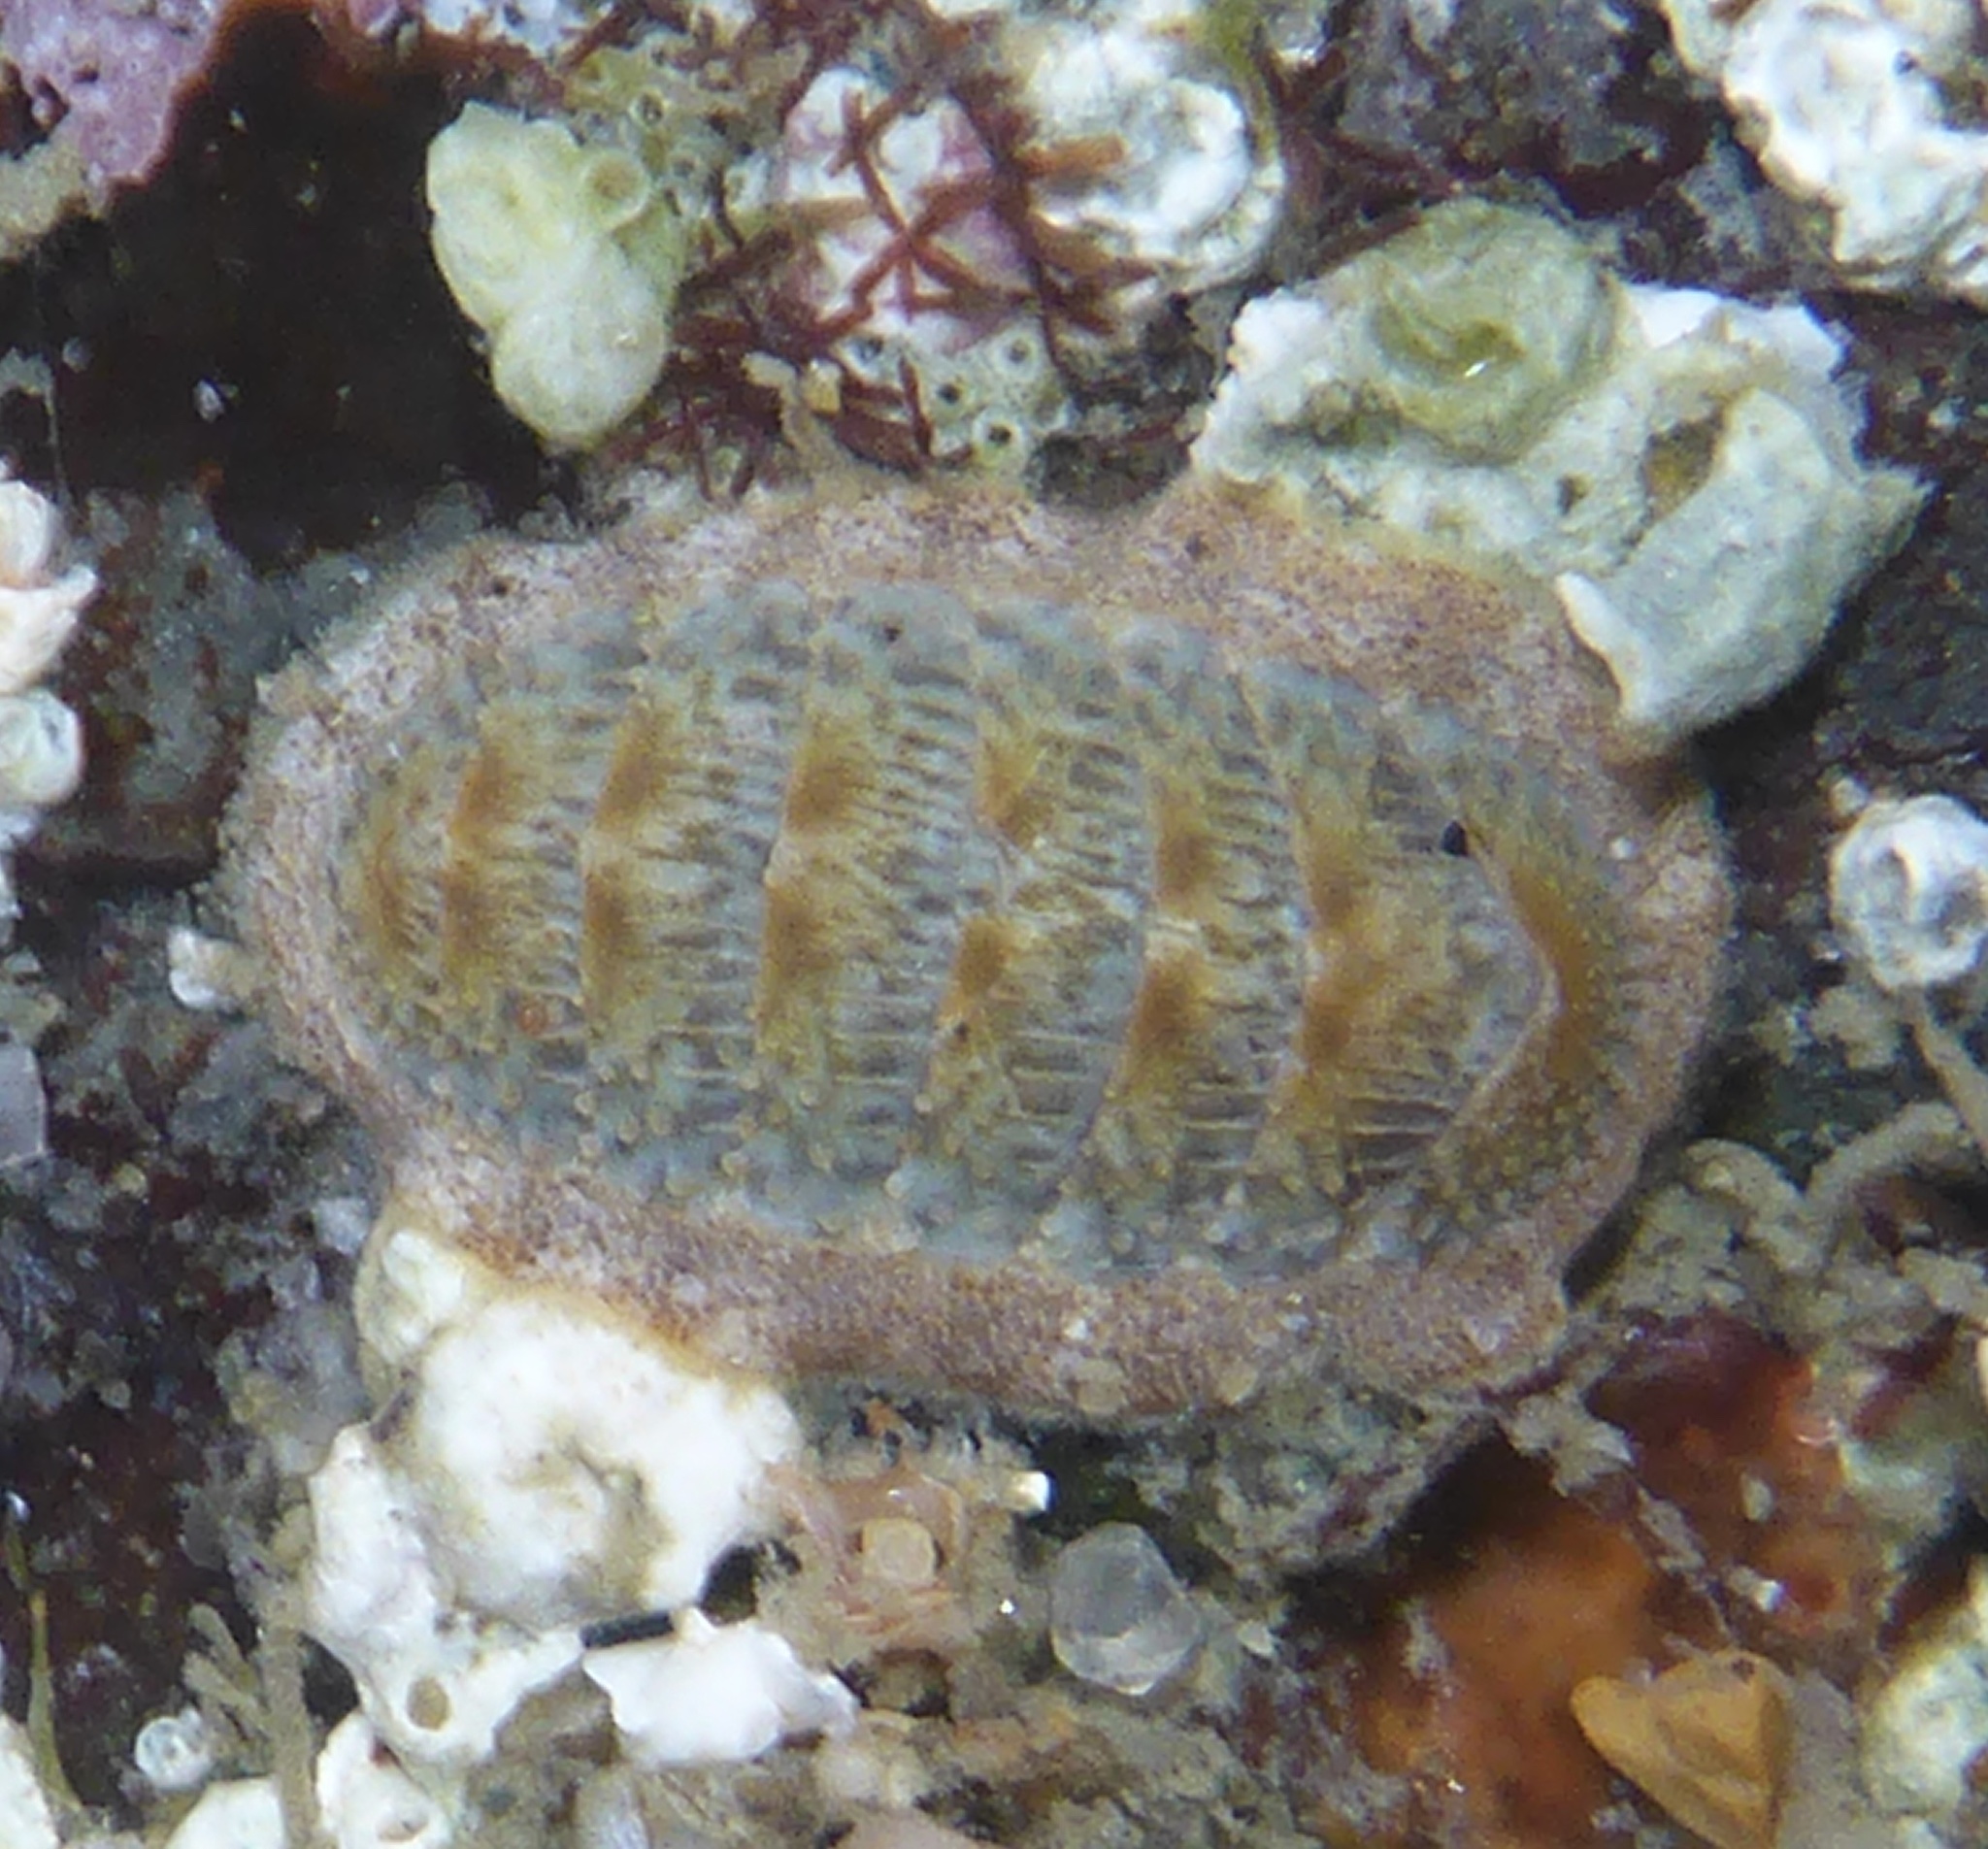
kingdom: Animalia
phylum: Mollusca
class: Polyplacophora
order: Chitonida
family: Ischnochitonidae
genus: Lepidozona
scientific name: Lepidozona cooperi
